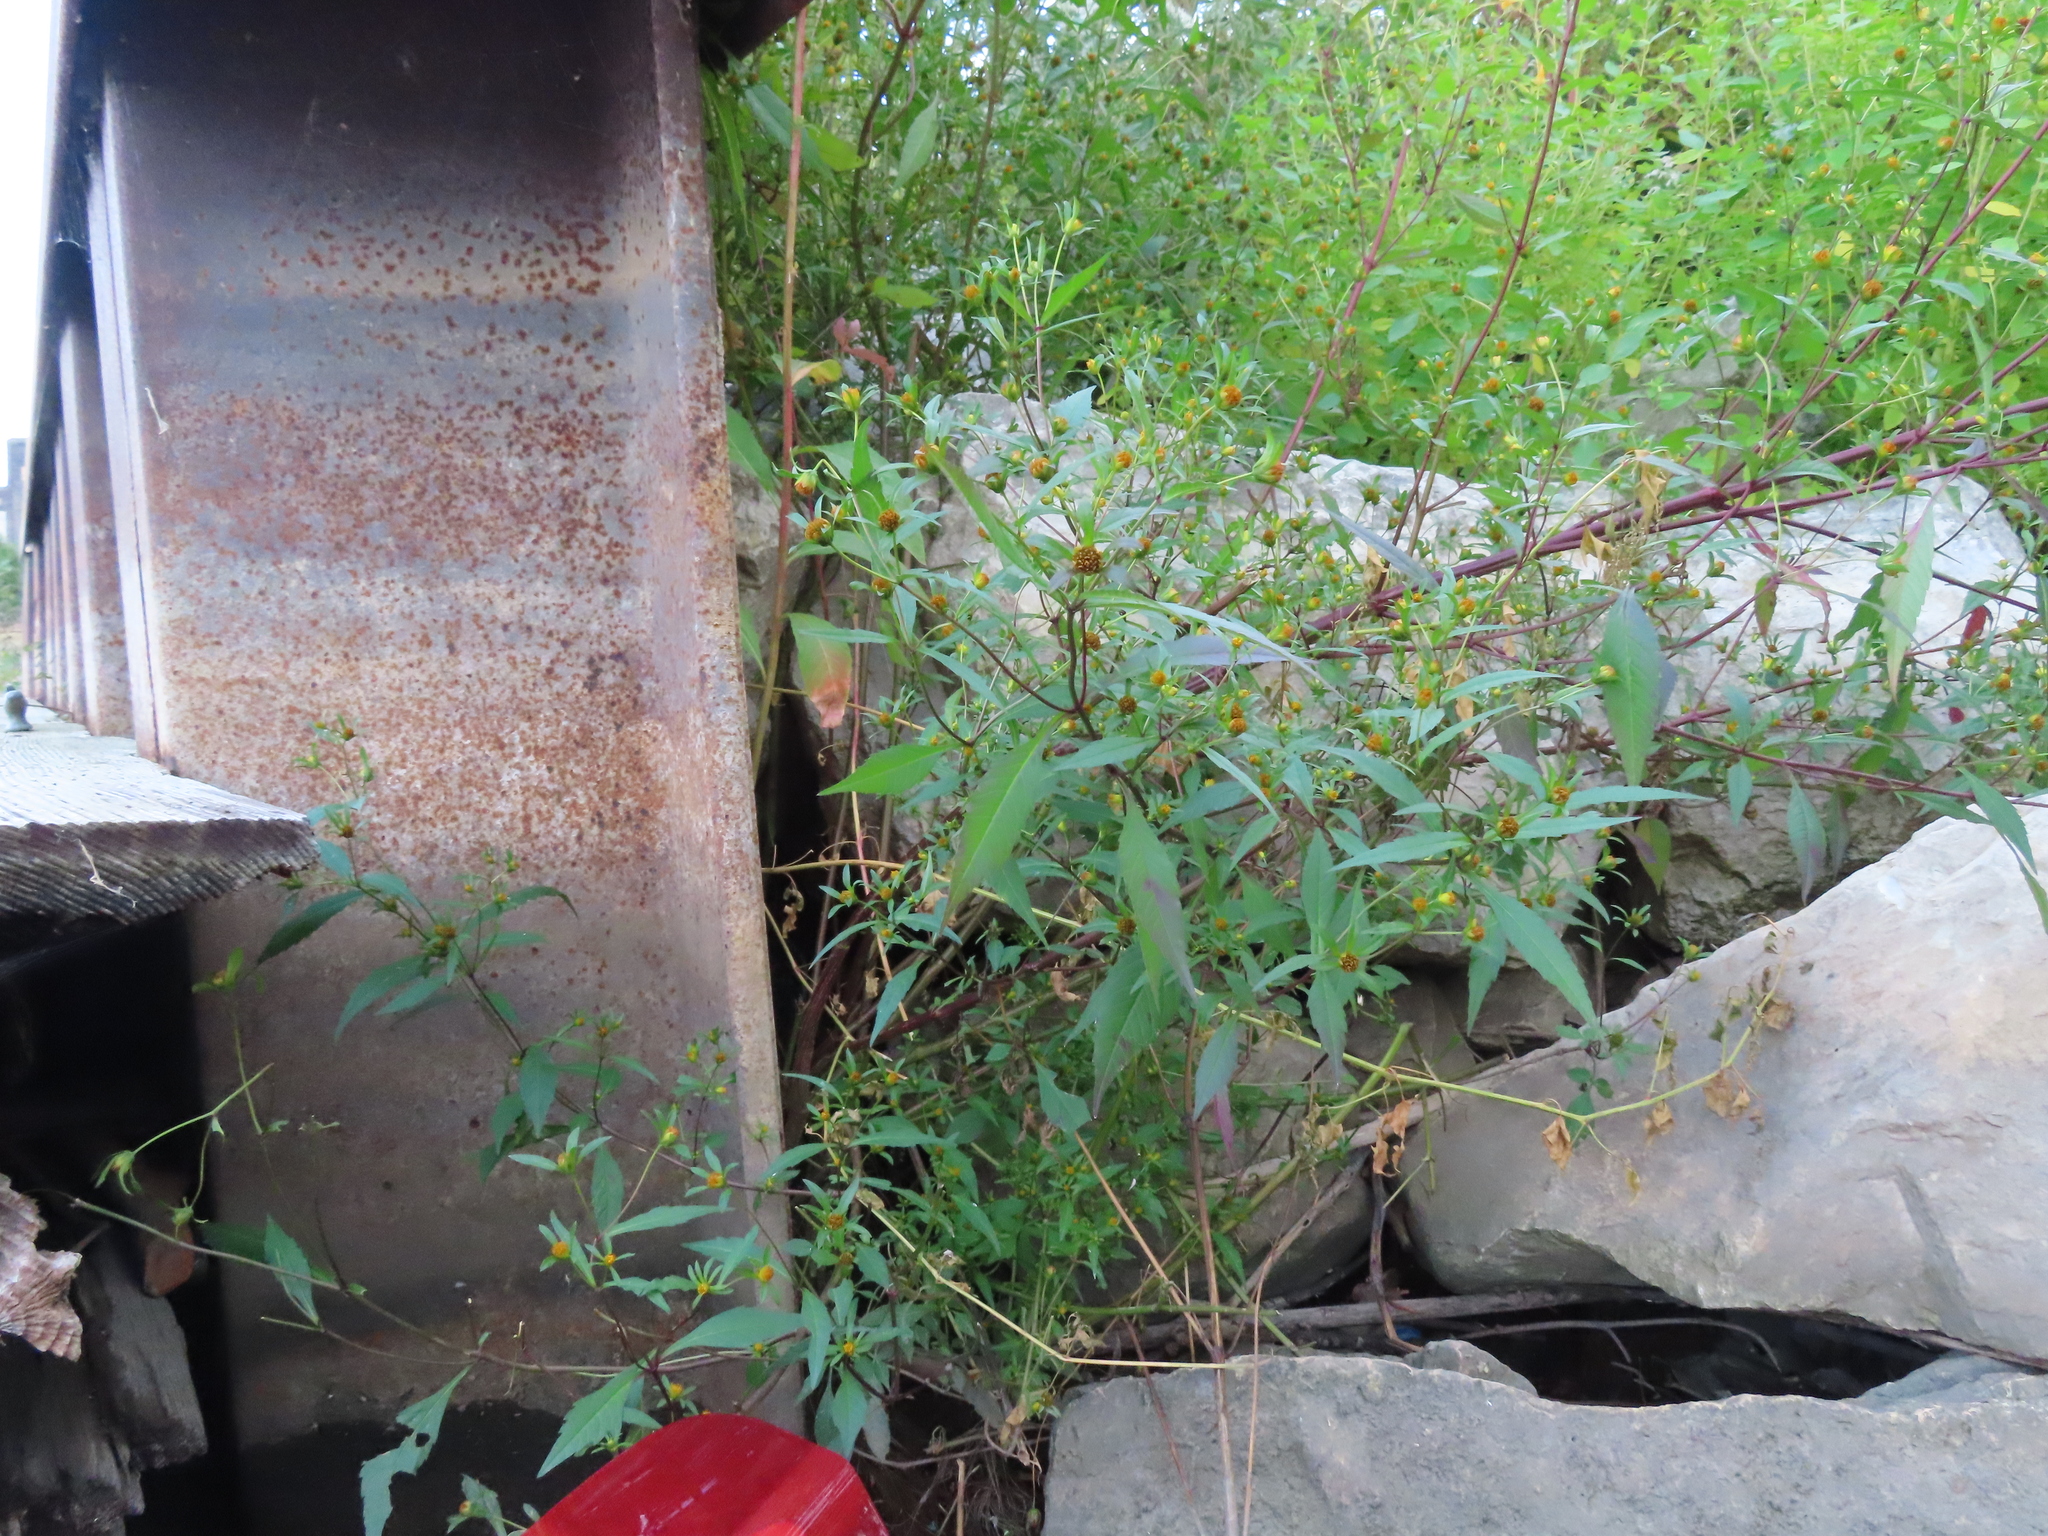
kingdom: Plantae
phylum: Tracheophyta
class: Magnoliopsida
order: Asterales
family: Asteraceae
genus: Bidens
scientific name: Bidens connata
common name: London bur-marigold
